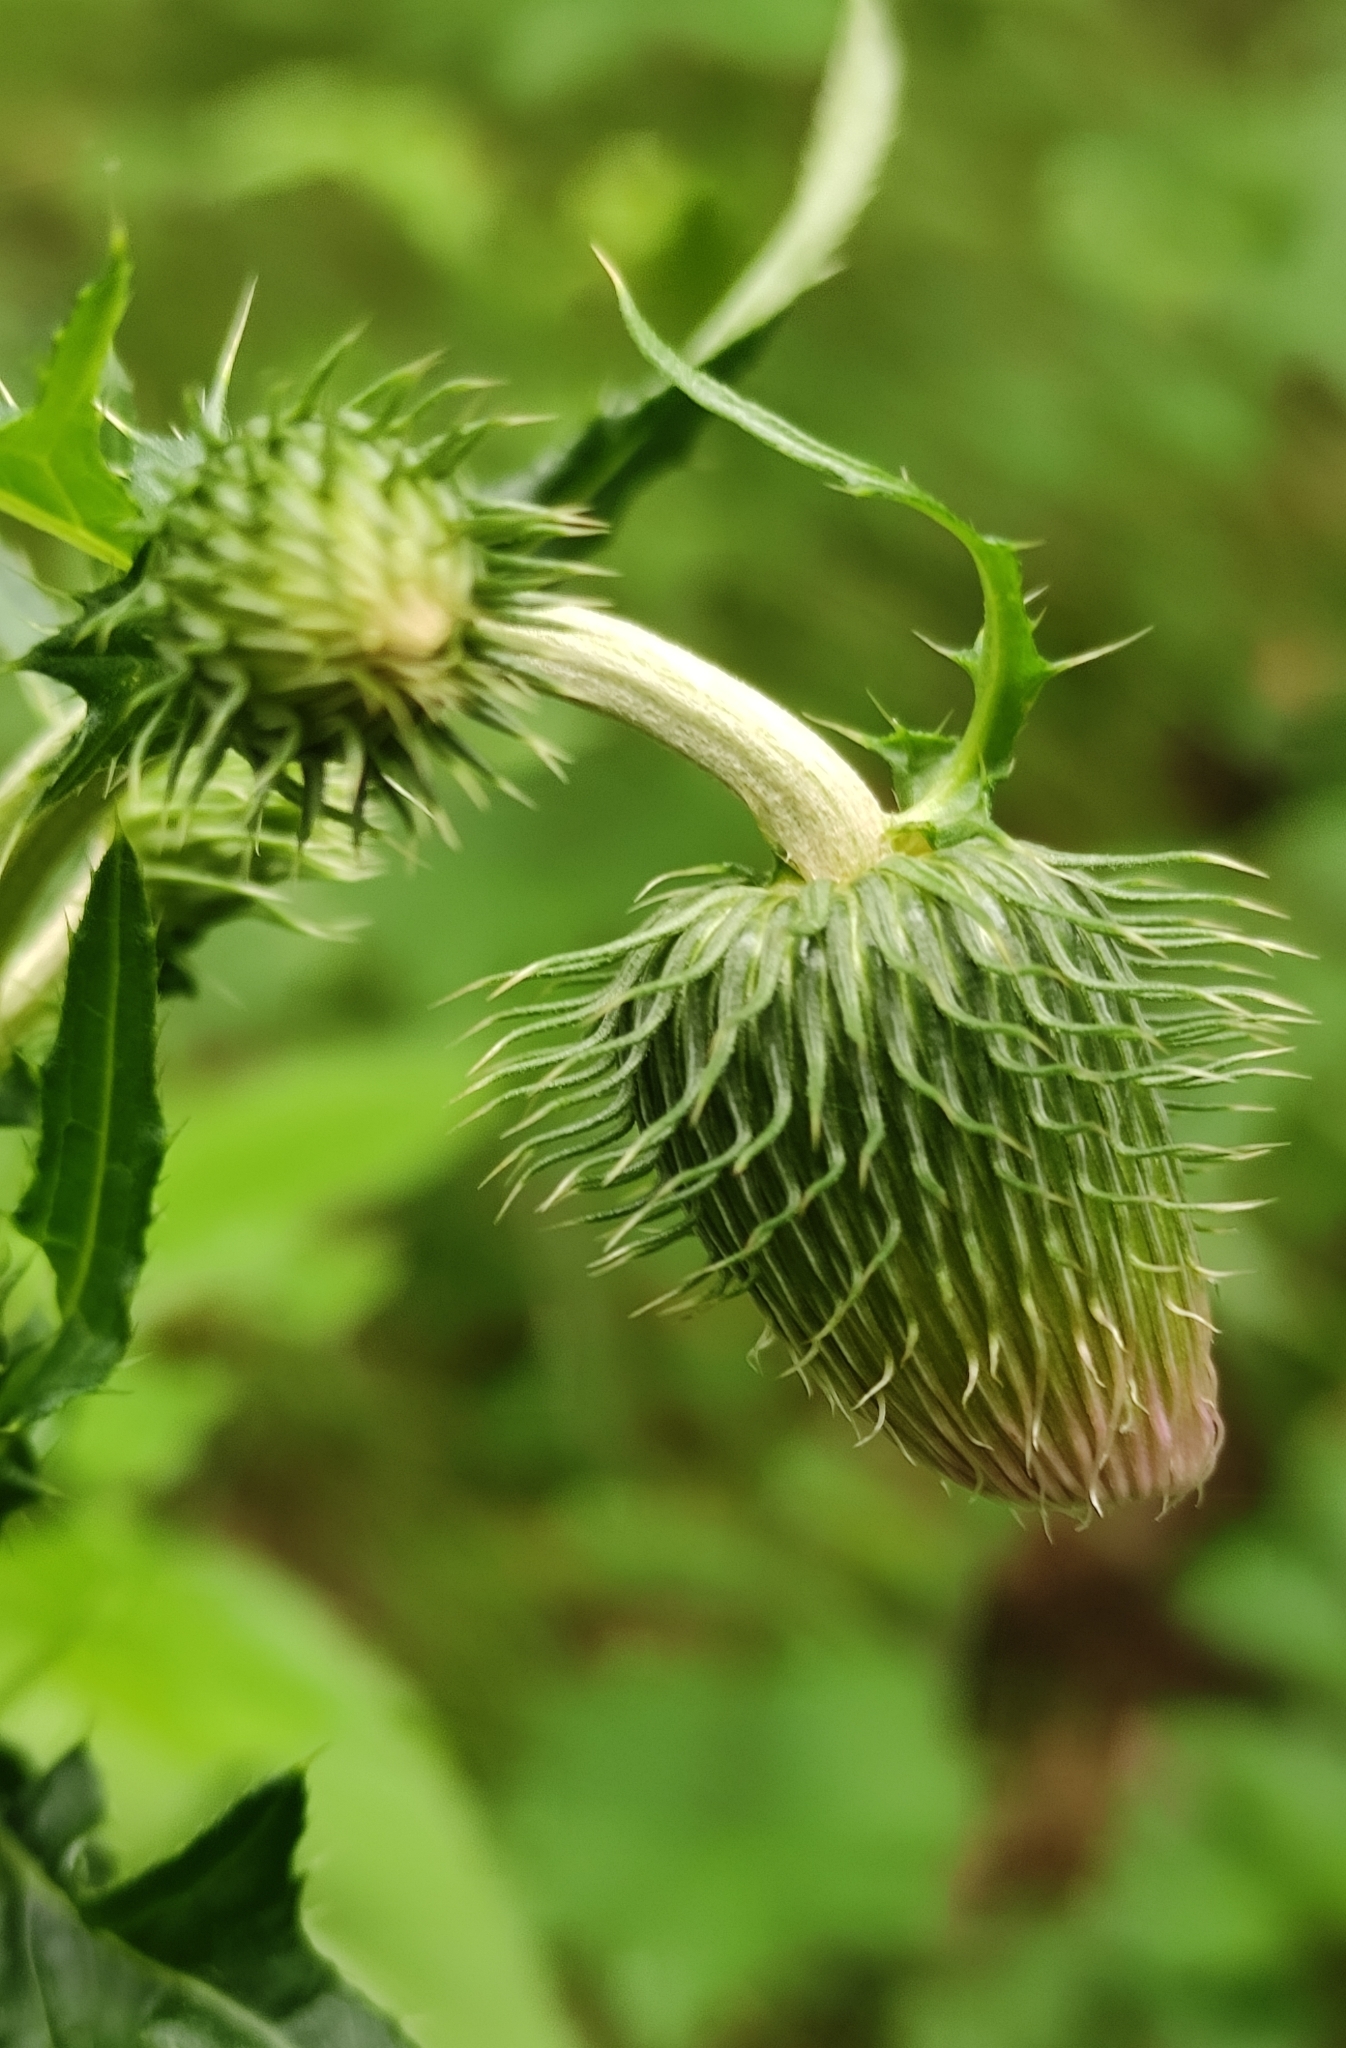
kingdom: Plantae
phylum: Tracheophyta
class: Magnoliopsida
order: Asterales
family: Asteraceae
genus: Cirsium
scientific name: Cirsium pendulum
